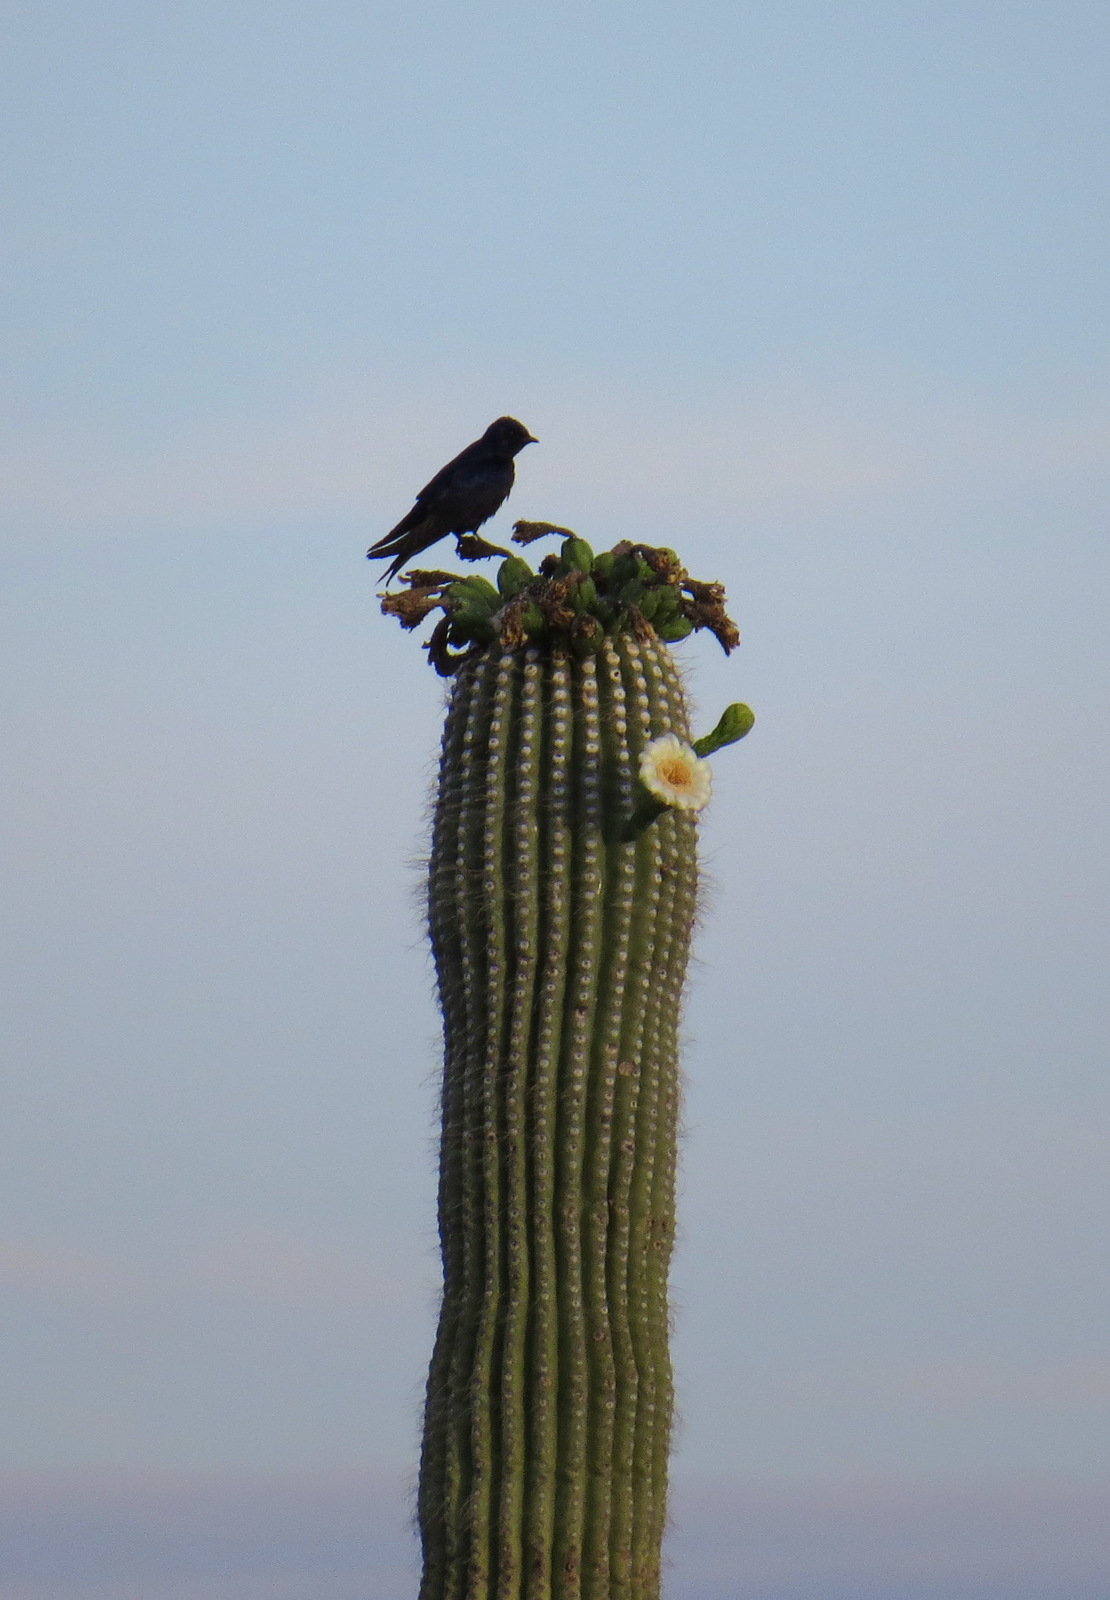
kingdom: Animalia
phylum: Chordata
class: Aves
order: Passeriformes
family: Hirundinidae
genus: Progne
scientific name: Progne subis
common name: Purple martin
